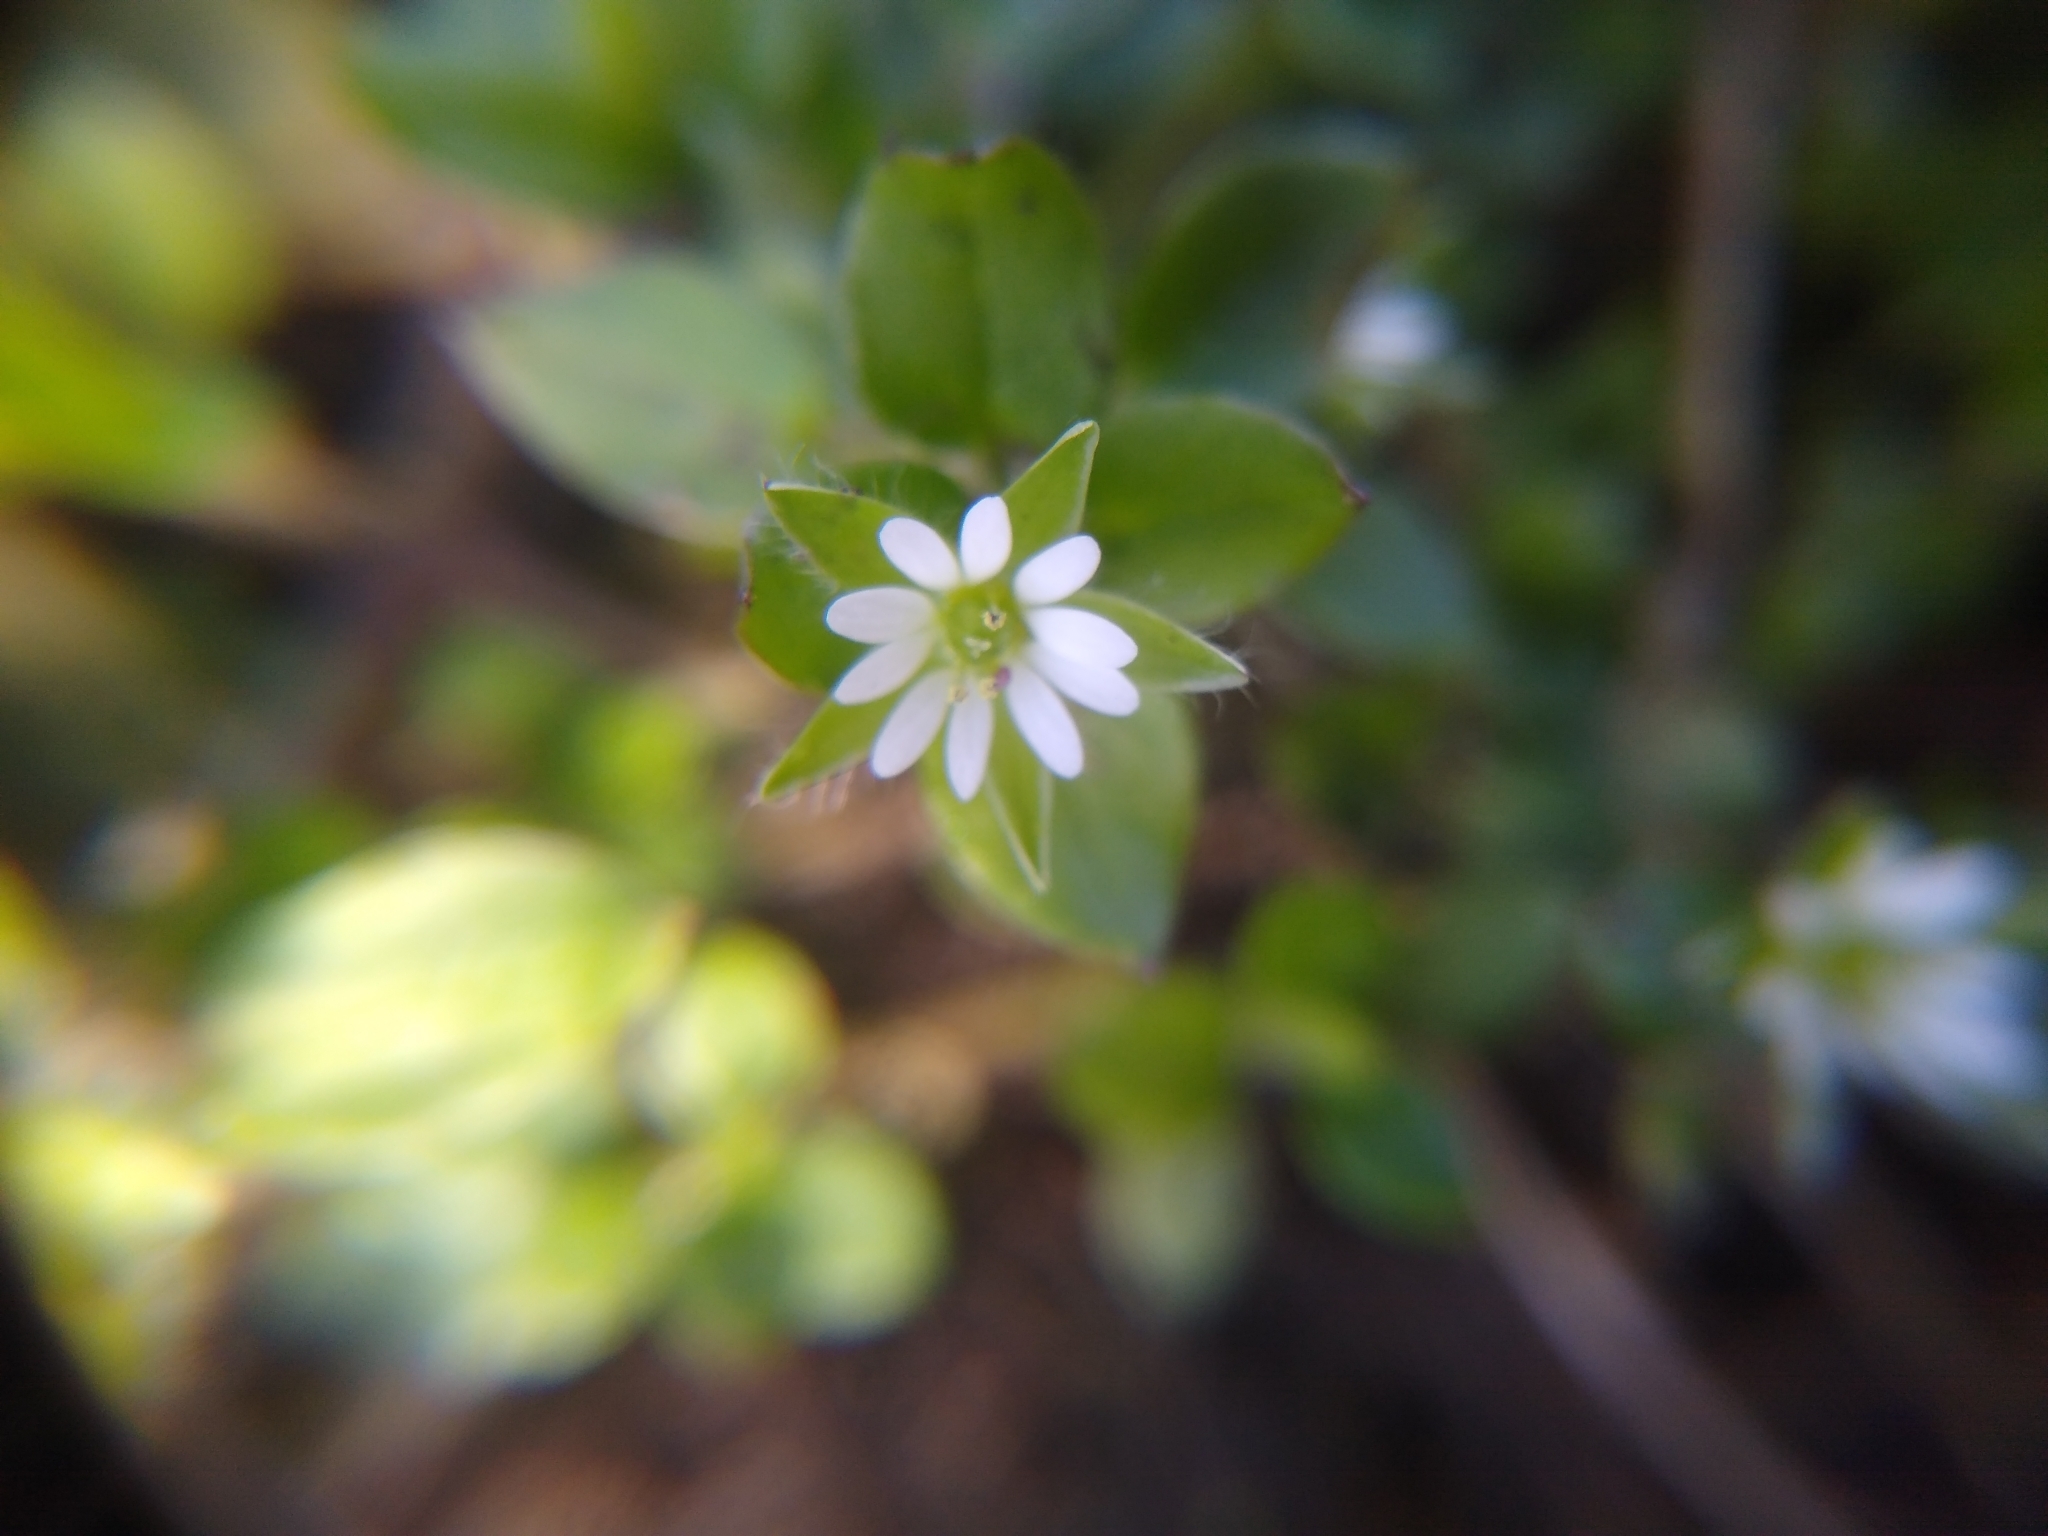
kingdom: Plantae
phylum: Tracheophyta
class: Magnoliopsida
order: Caryophyllales
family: Caryophyllaceae
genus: Stellaria
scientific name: Stellaria media
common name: Common chickweed
